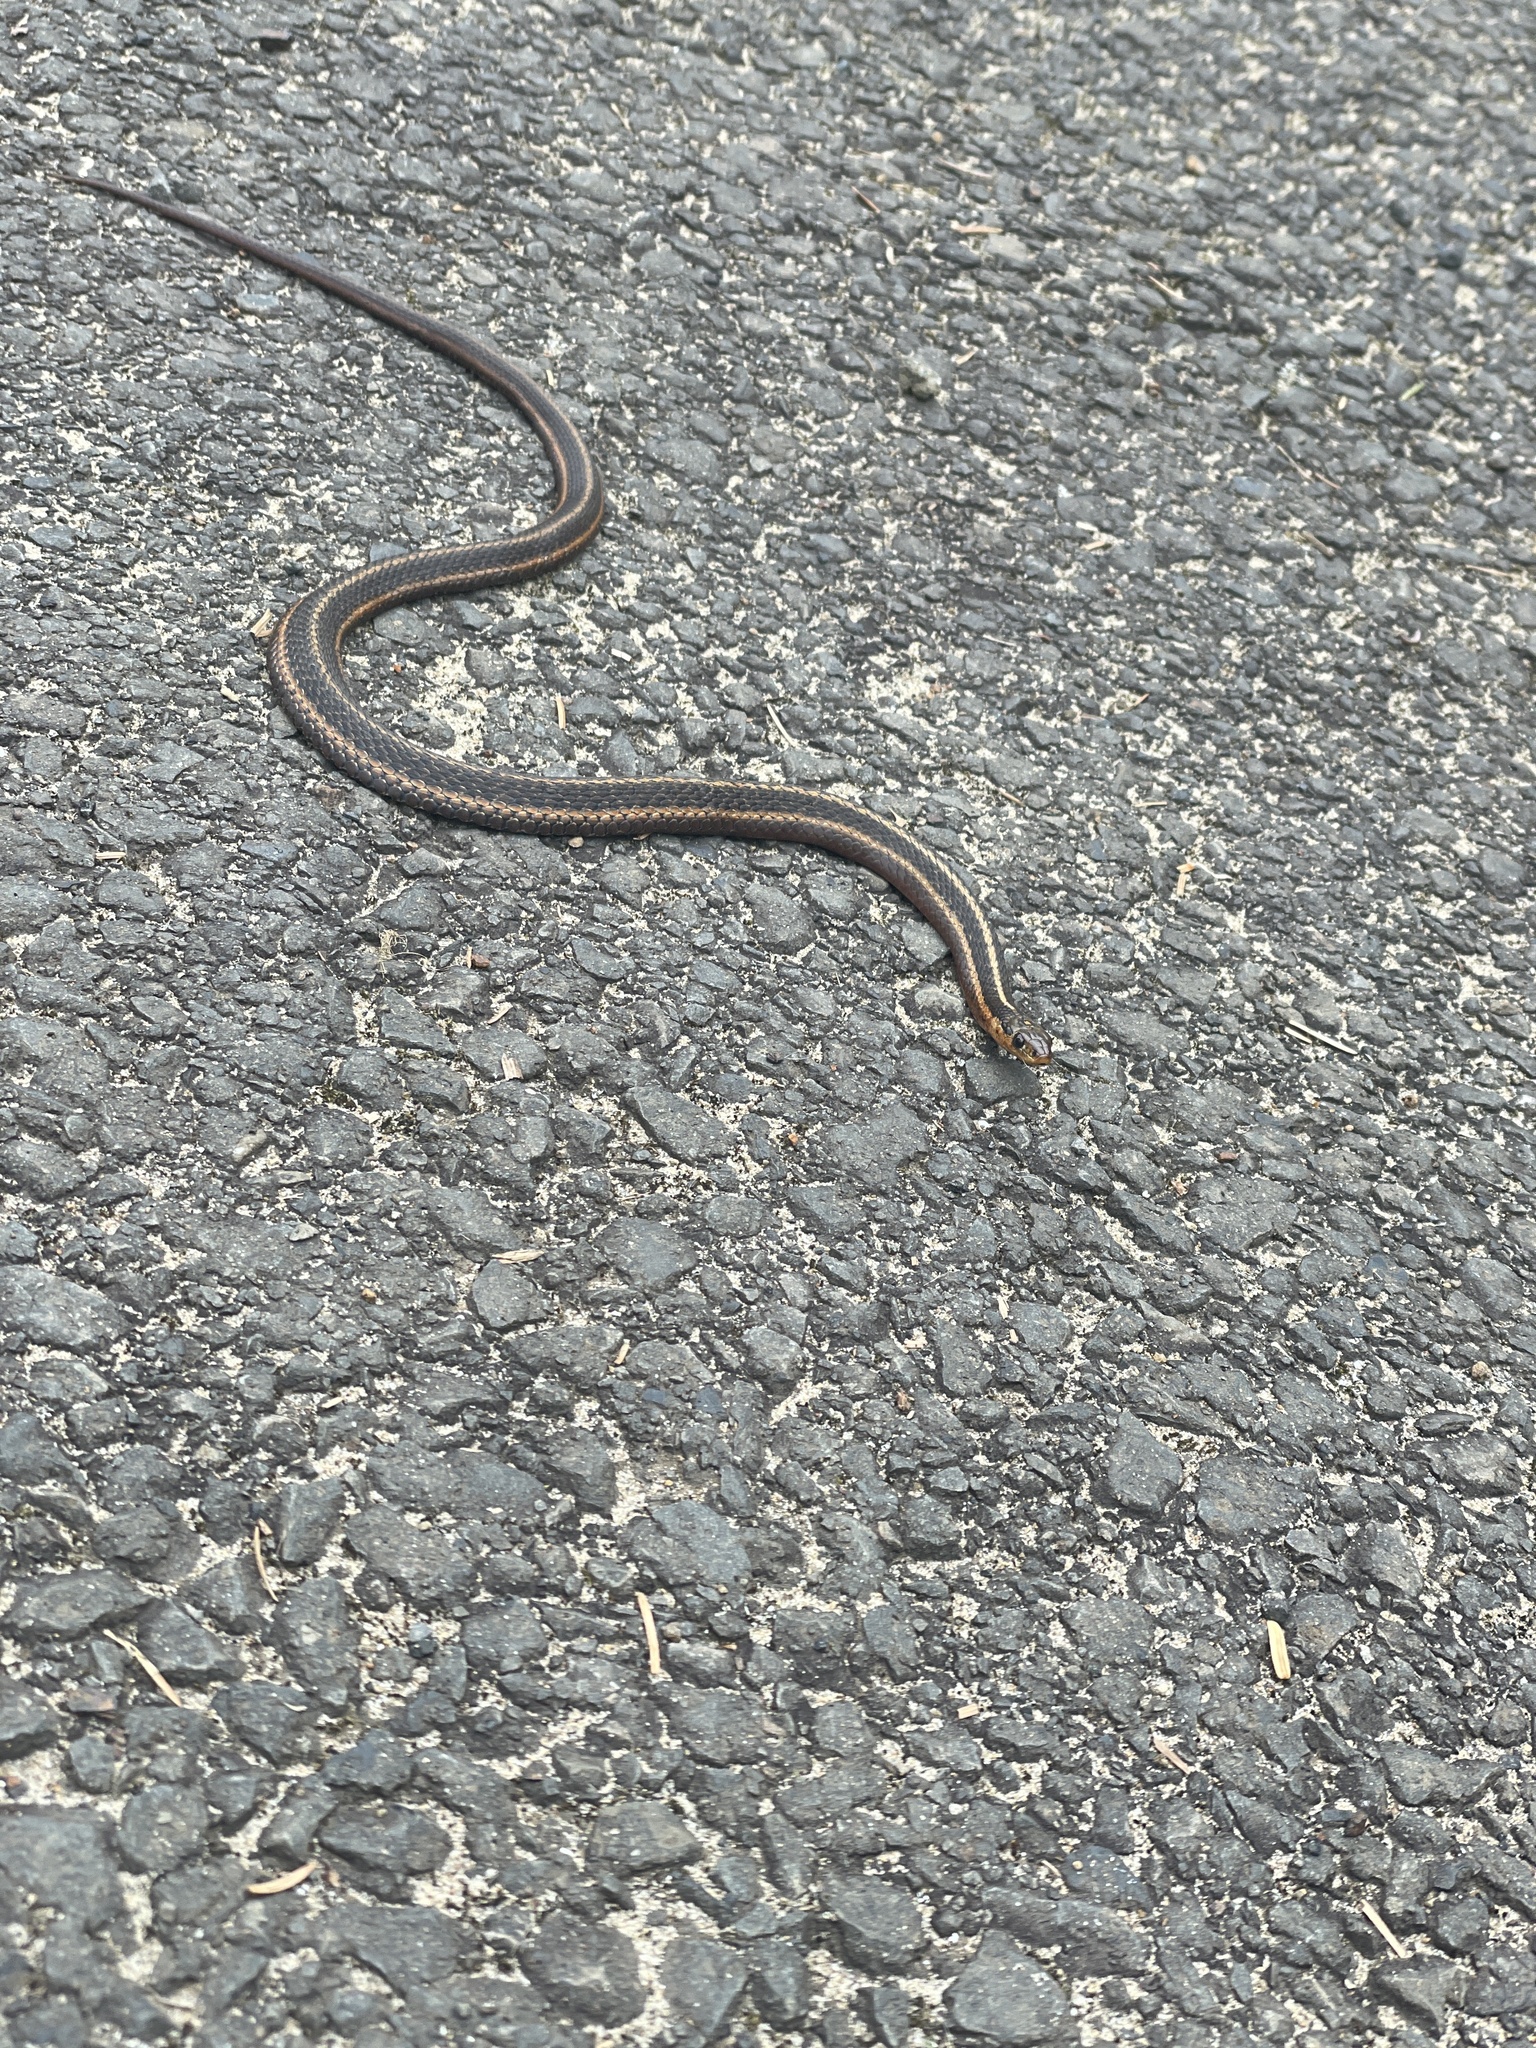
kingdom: Animalia
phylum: Chordata
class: Squamata
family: Colubridae
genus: Thamnophis
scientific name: Thamnophis ordinoides
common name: Northwestern garter snake
